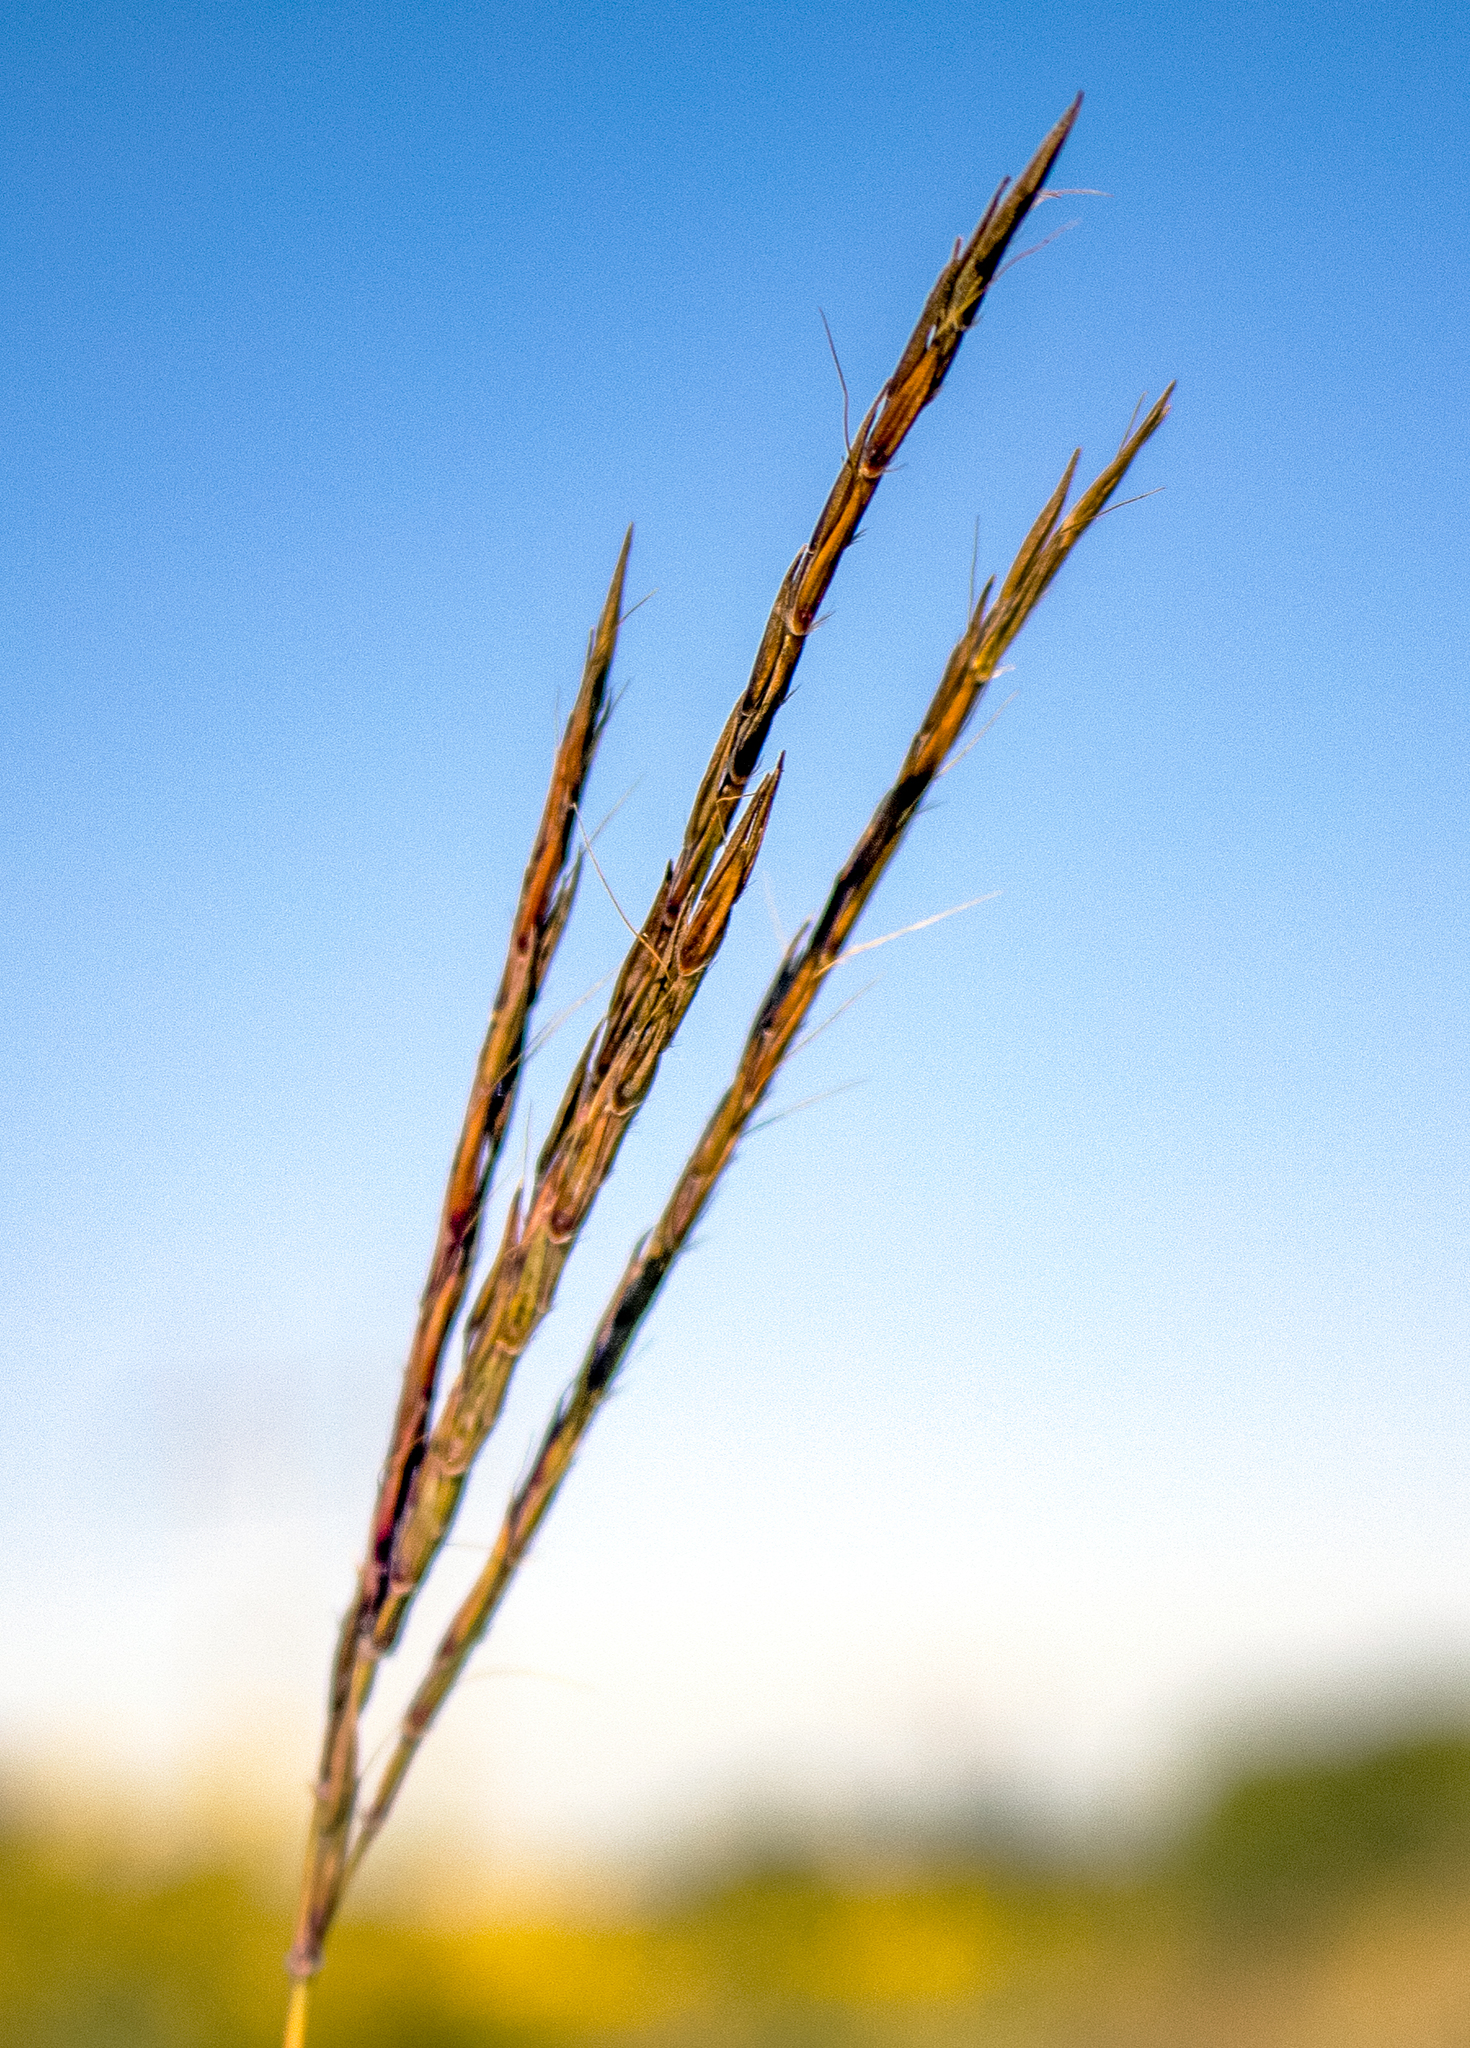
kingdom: Plantae
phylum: Tracheophyta
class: Liliopsida
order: Poales
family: Poaceae
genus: Andropogon
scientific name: Andropogon gerardi
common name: Big bluestem
